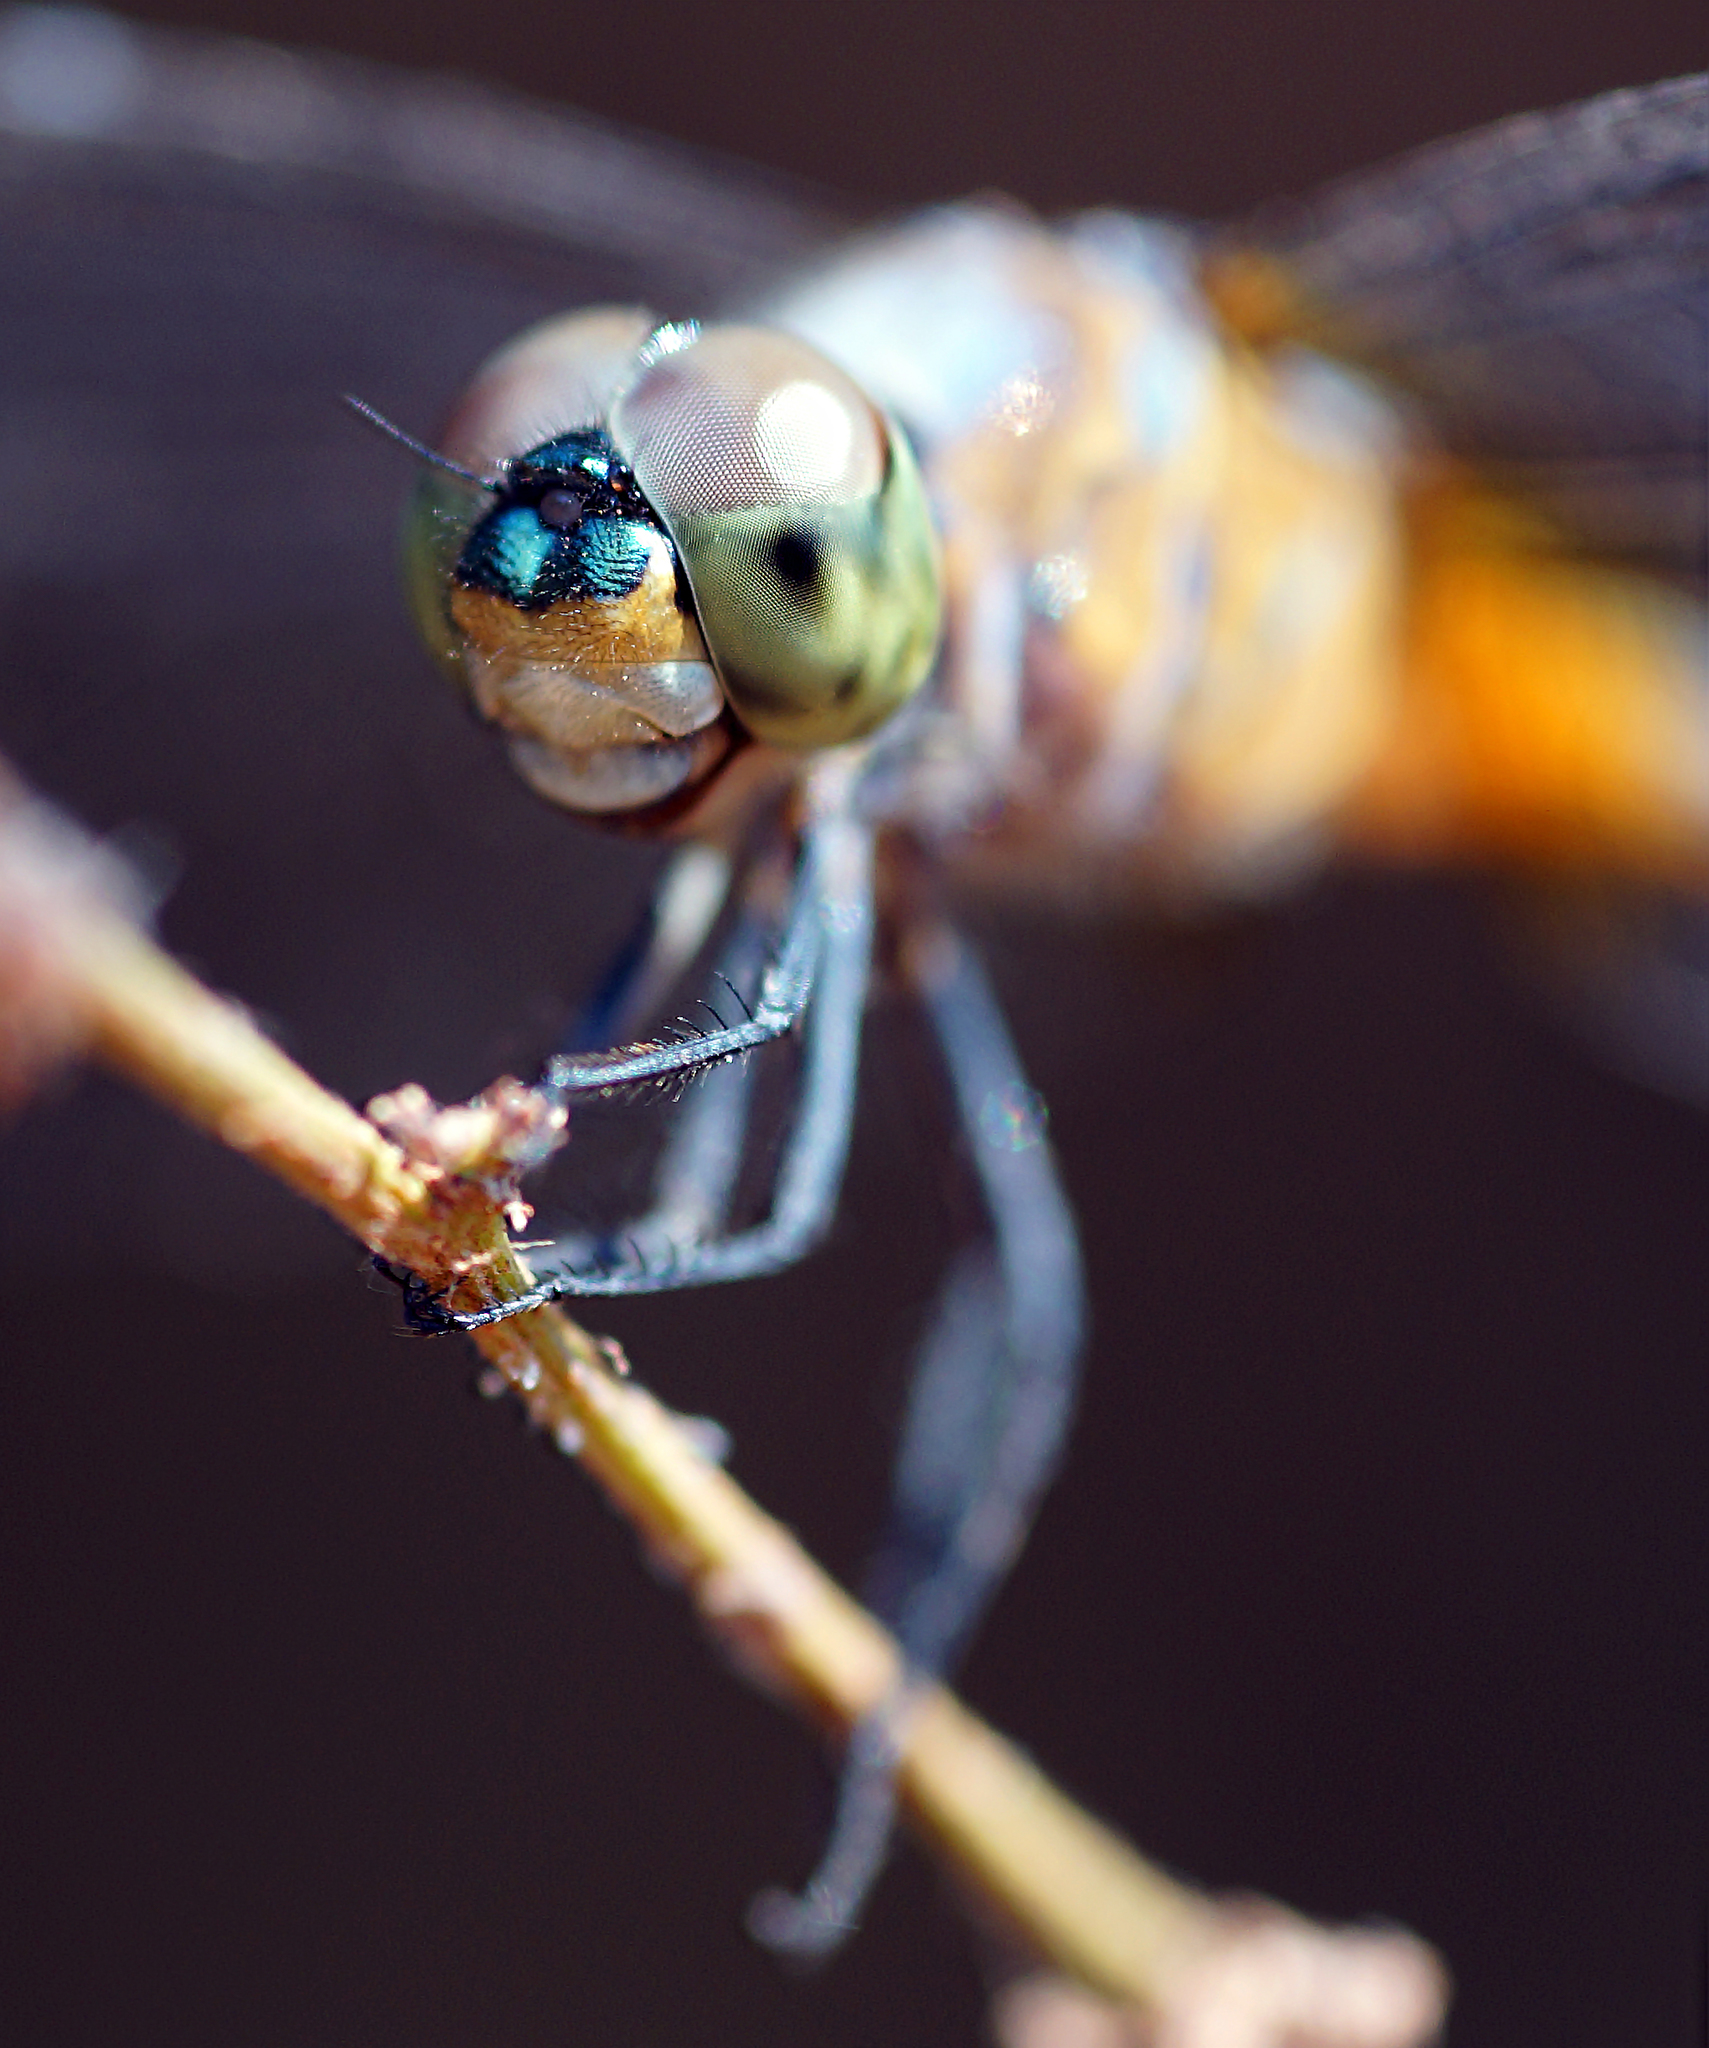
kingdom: Animalia
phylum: Arthropoda
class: Insecta
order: Odonata
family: Libellulidae
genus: Brachydiplax
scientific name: Brachydiplax chalybea
